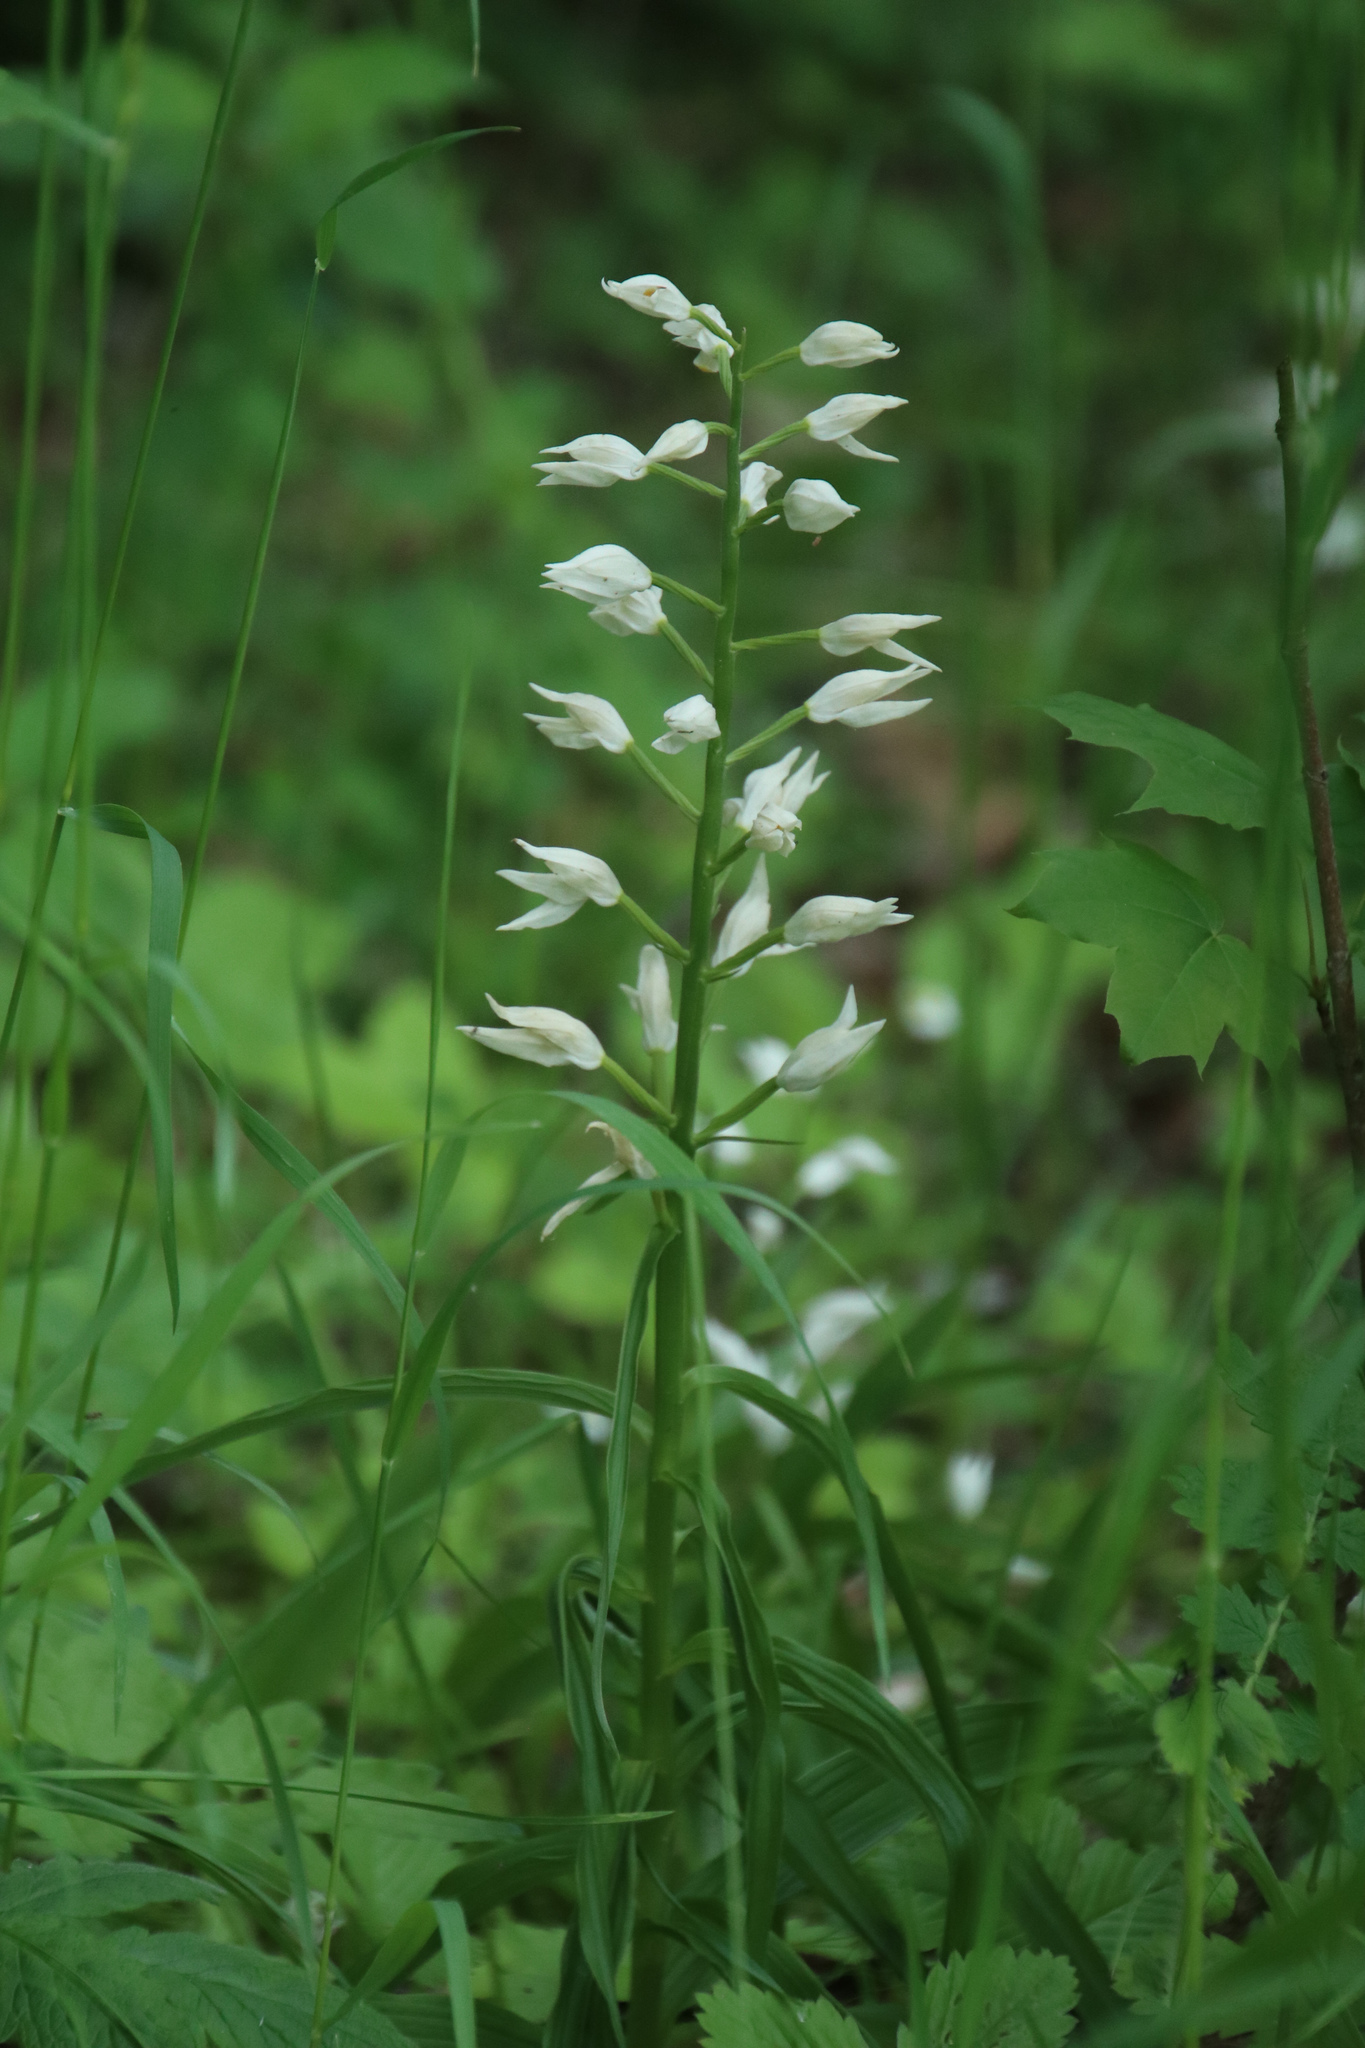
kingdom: Plantae
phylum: Tracheophyta
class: Liliopsida
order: Asparagales
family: Orchidaceae
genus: Cephalanthera
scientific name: Cephalanthera longifolia
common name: Narrow-leaved helleborine
